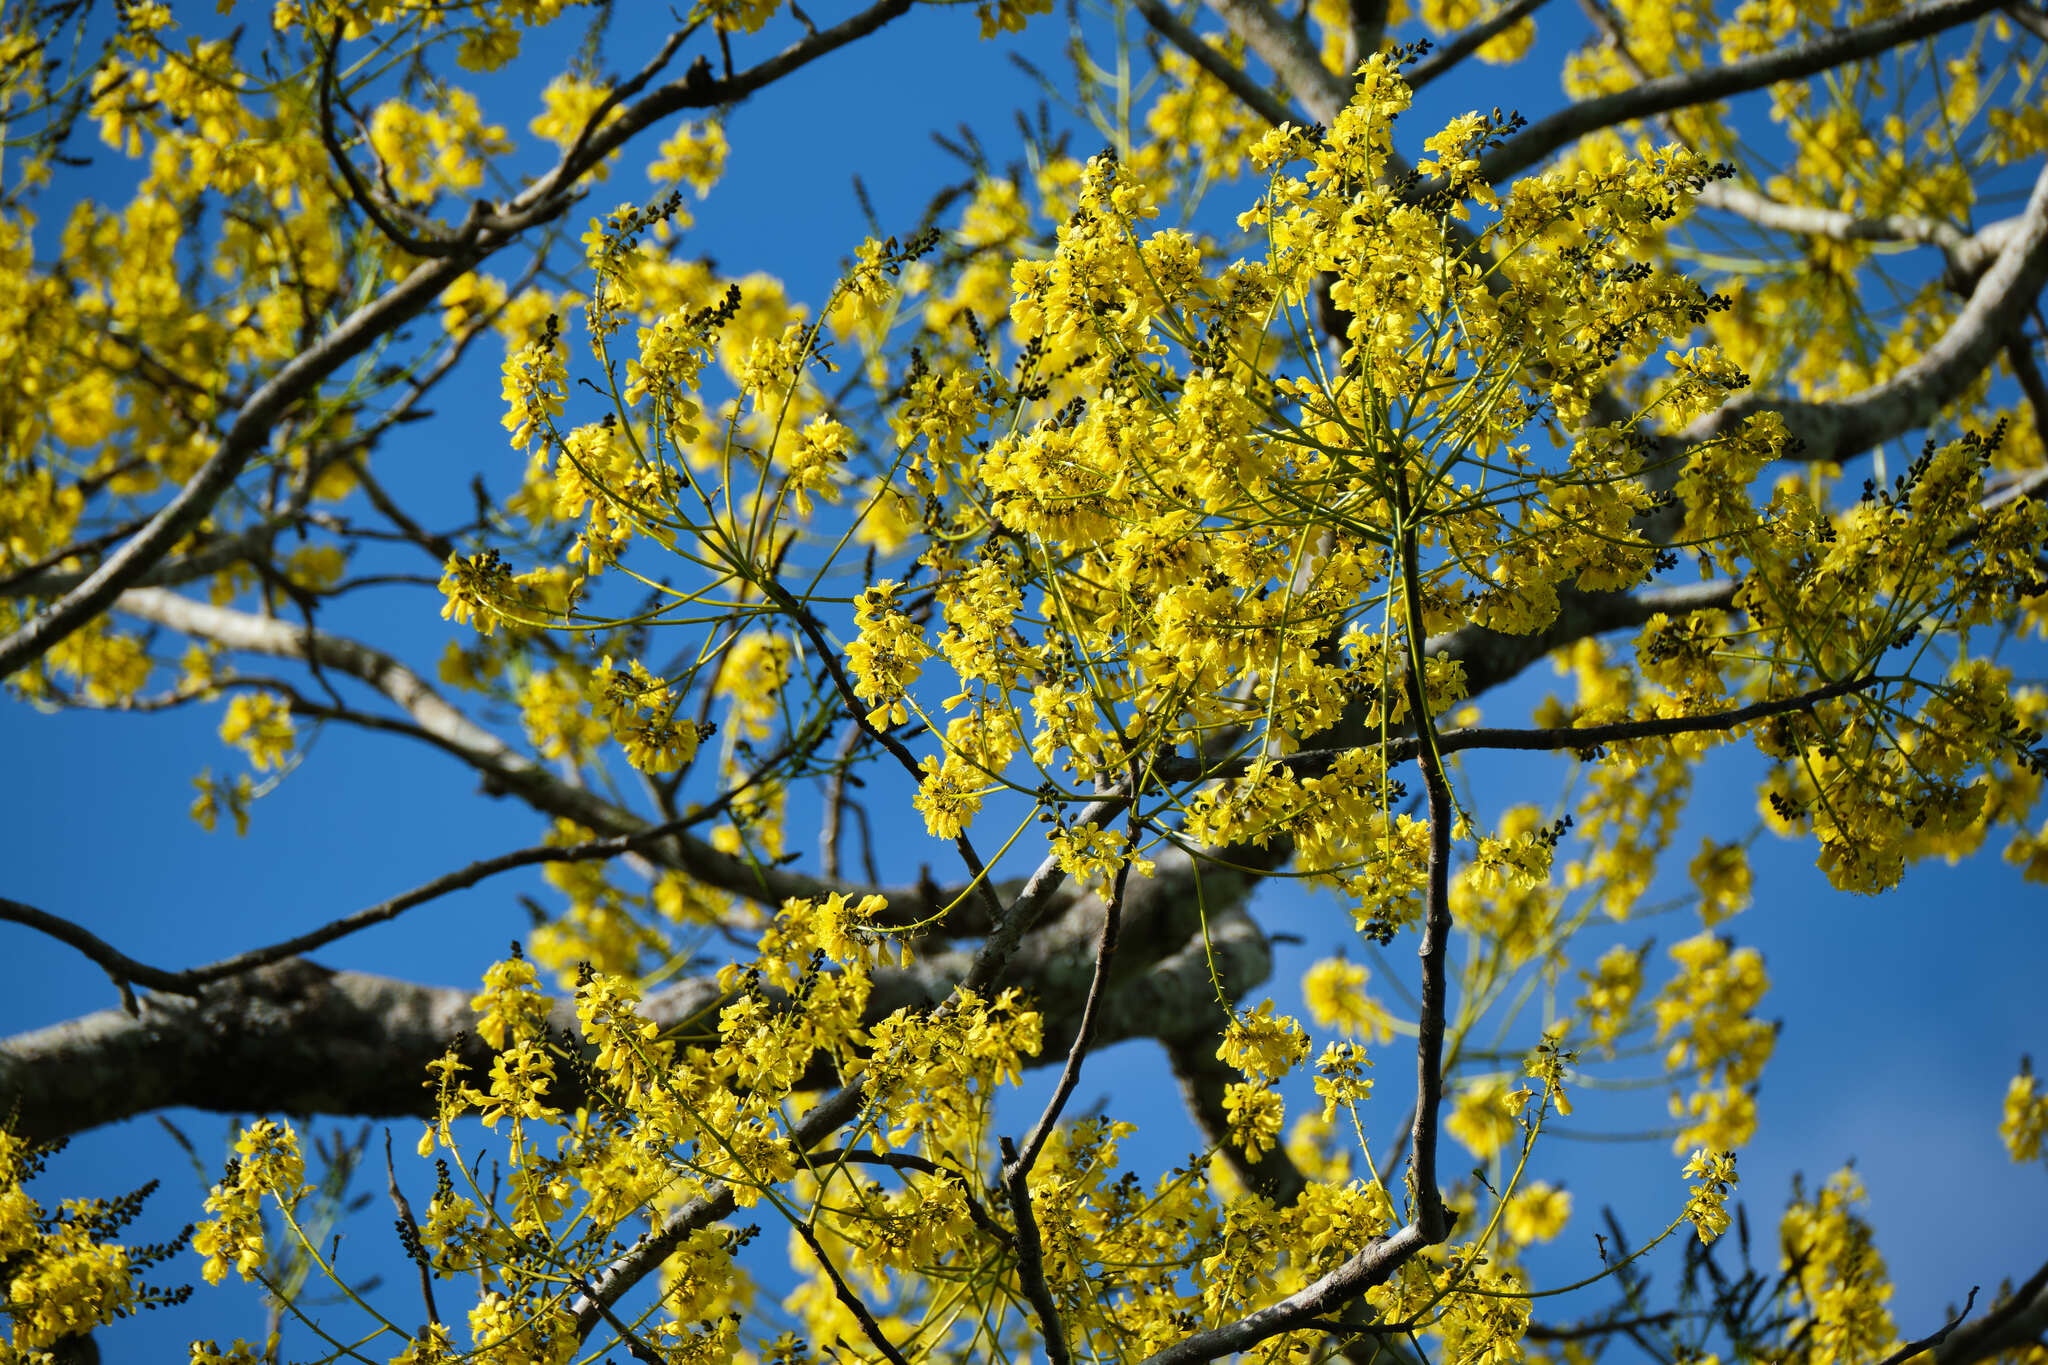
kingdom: Plantae
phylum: Tracheophyta
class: Magnoliopsida
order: Fabales
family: Fabaceae
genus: Schizolobium
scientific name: Schizolobium parahyba
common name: Brazilian firetree
